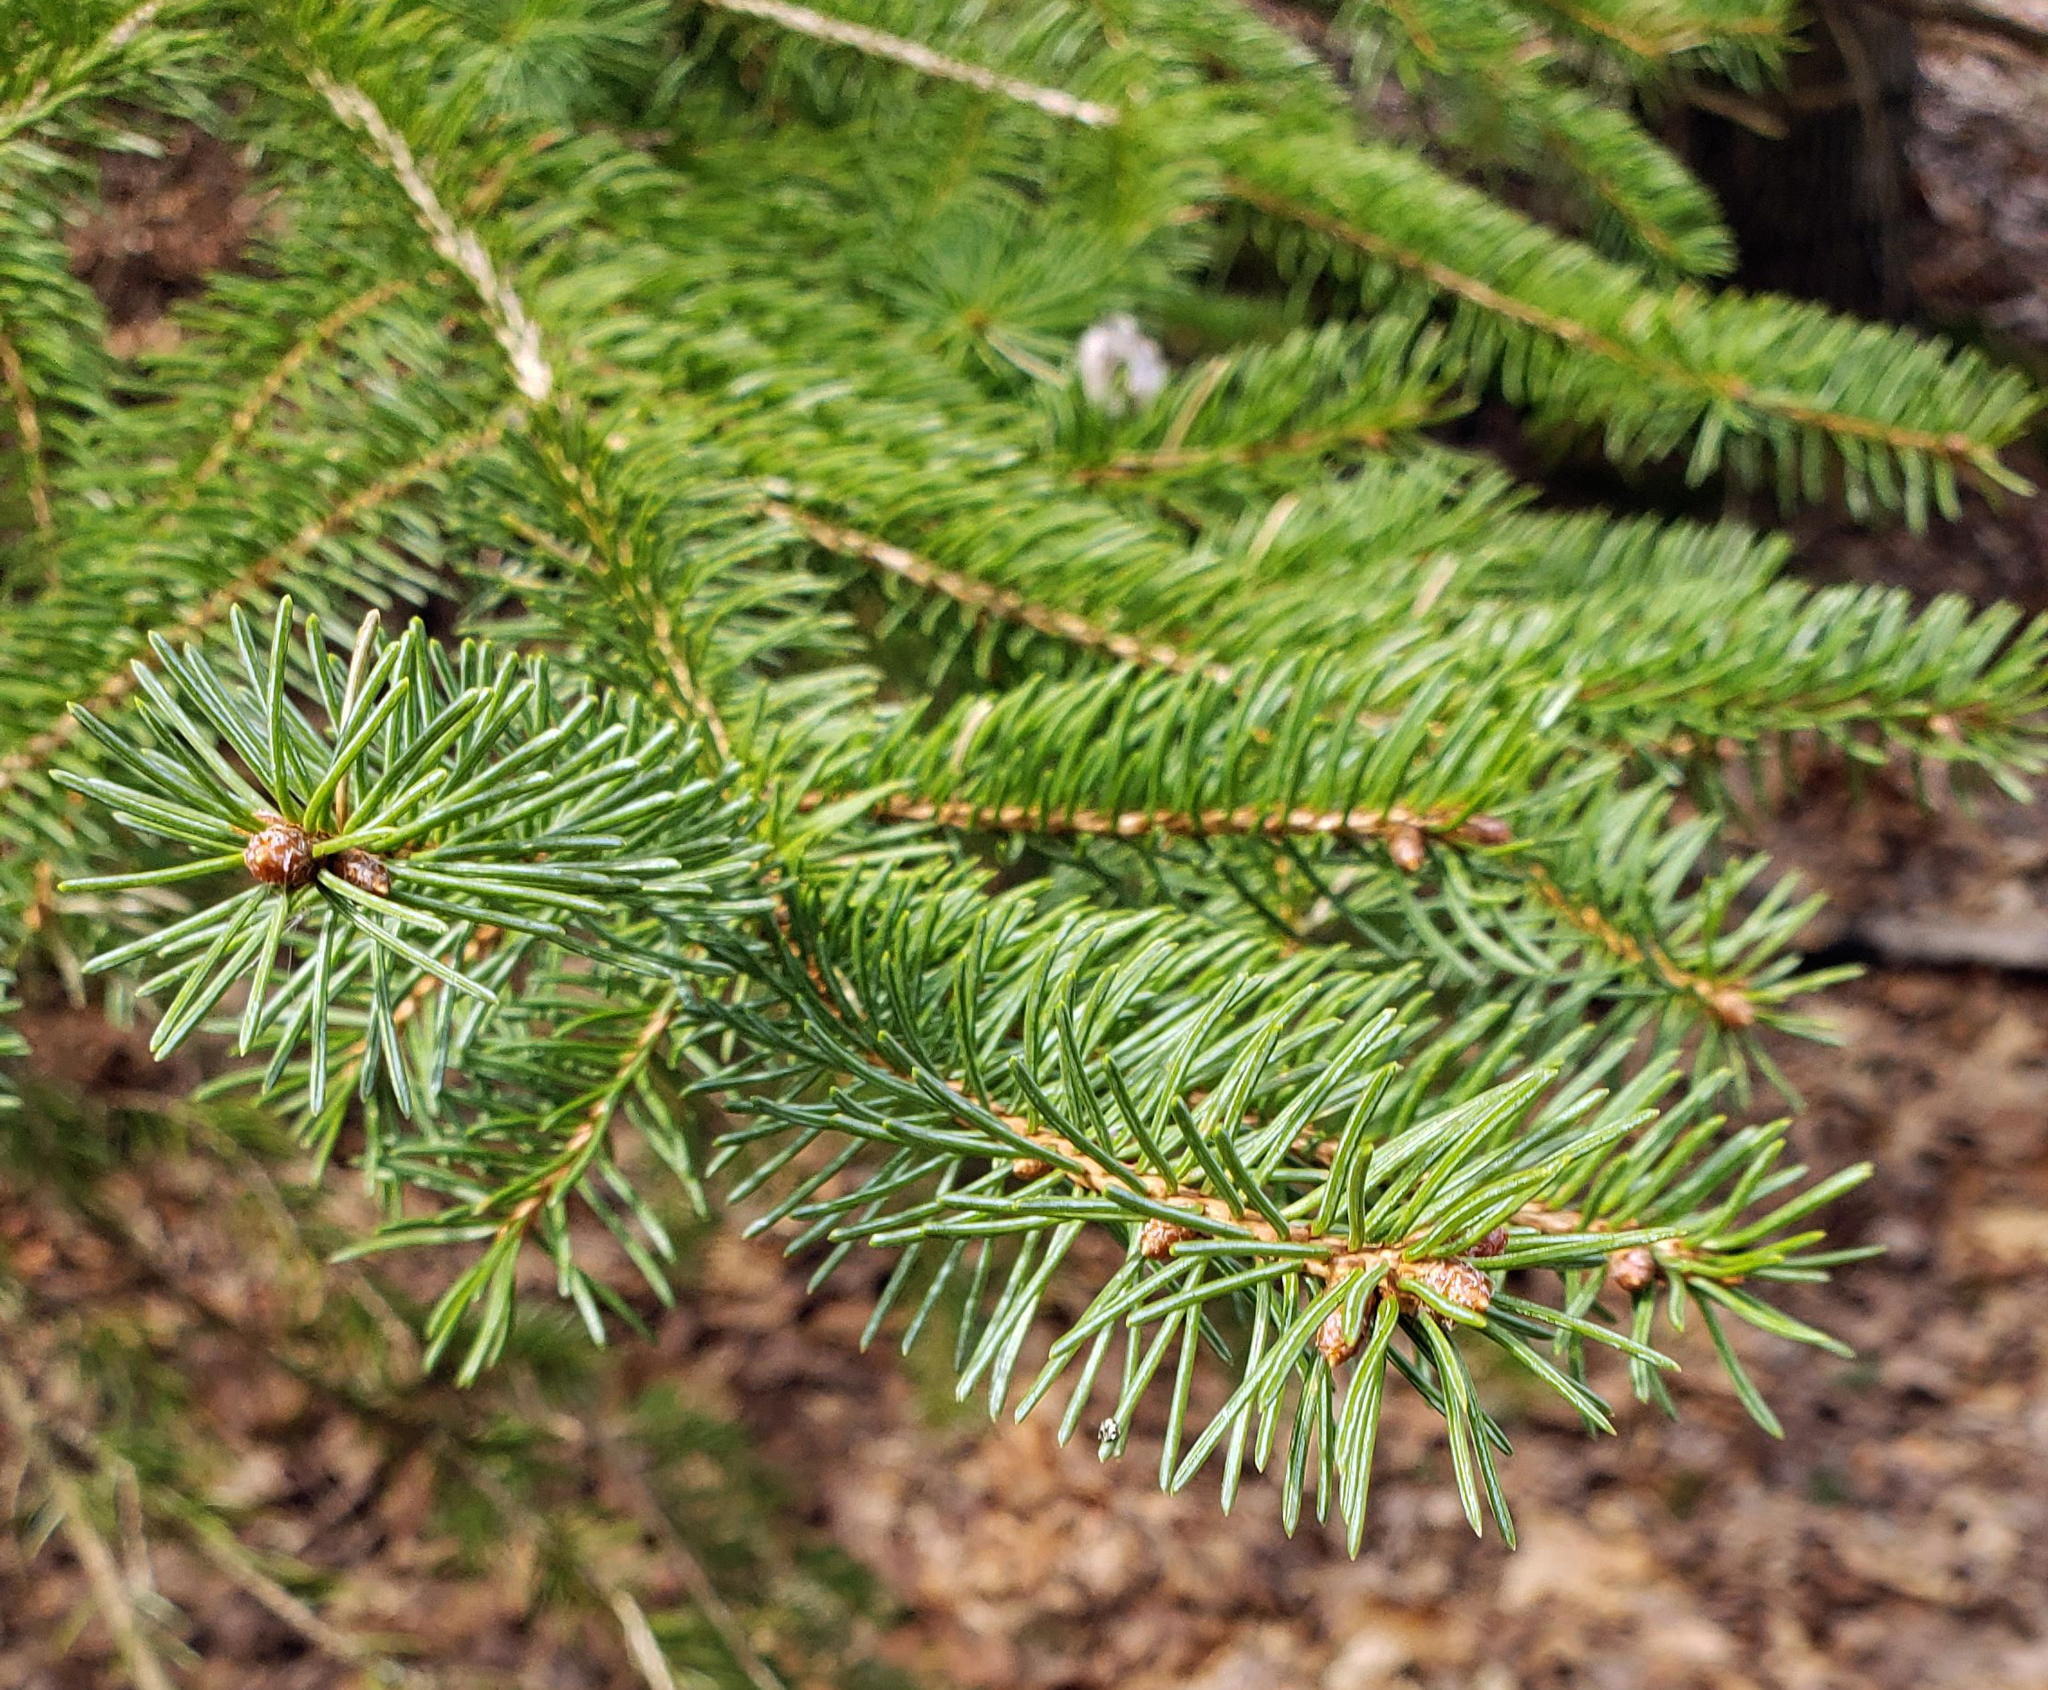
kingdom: Plantae
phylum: Tracheophyta
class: Pinopsida
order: Pinales
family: Pinaceae
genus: Picea
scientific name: Picea glauca
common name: White spruce
